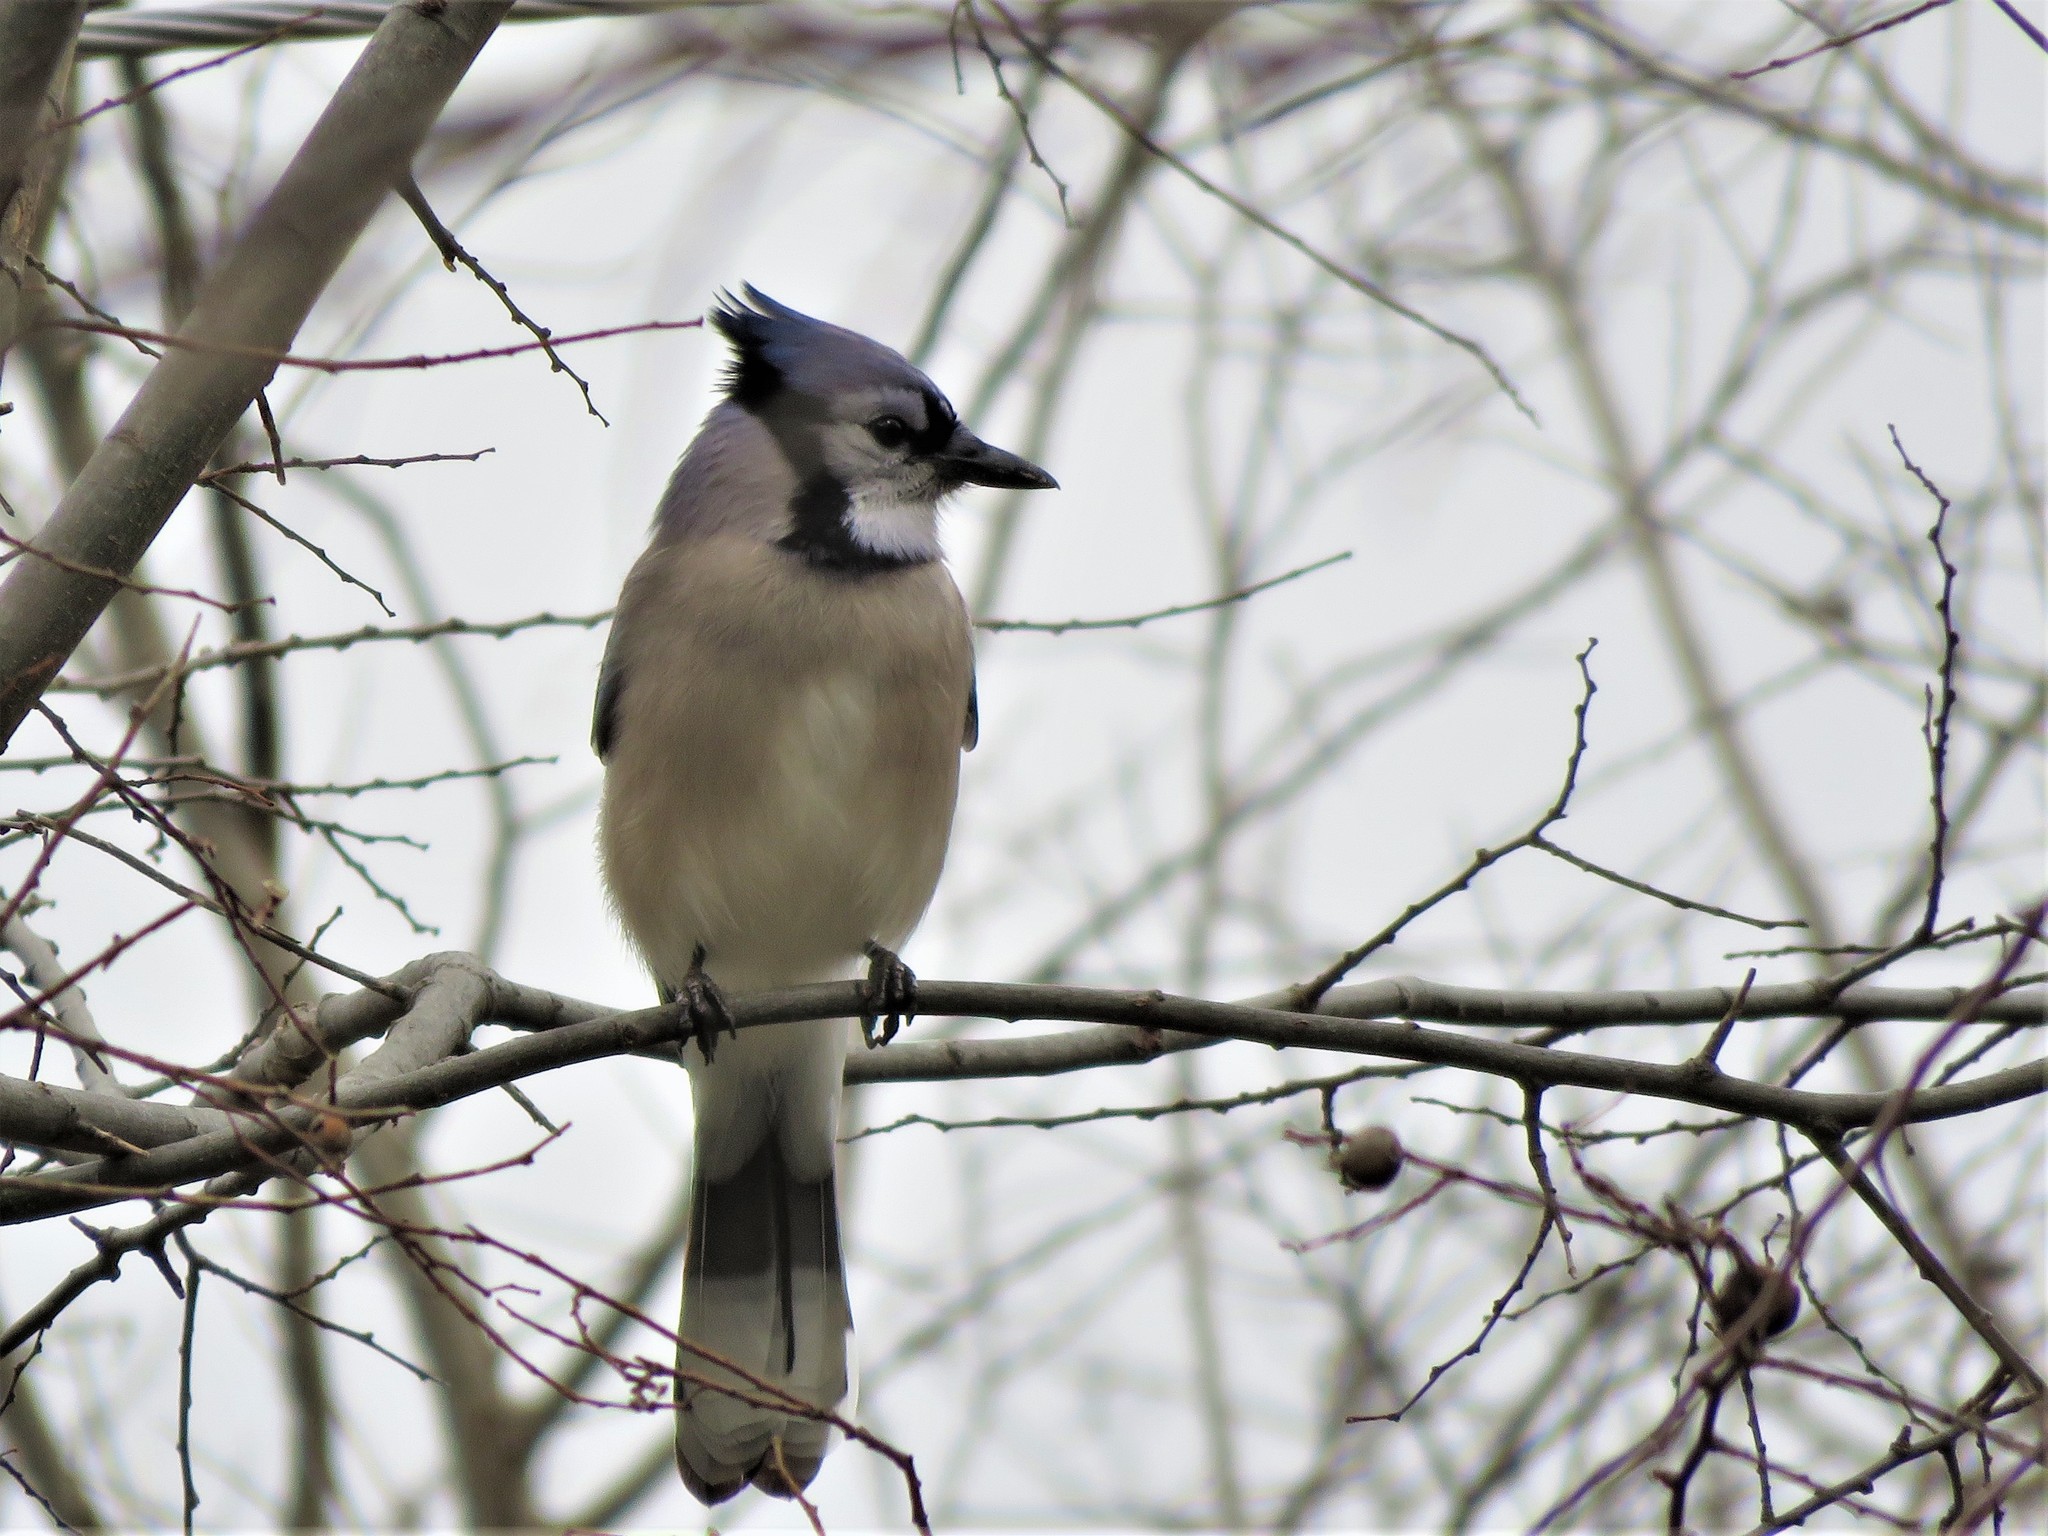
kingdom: Animalia
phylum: Chordata
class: Aves
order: Passeriformes
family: Corvidae
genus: Cyanocitta
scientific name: Cyanocitta cristata
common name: Blue jay
